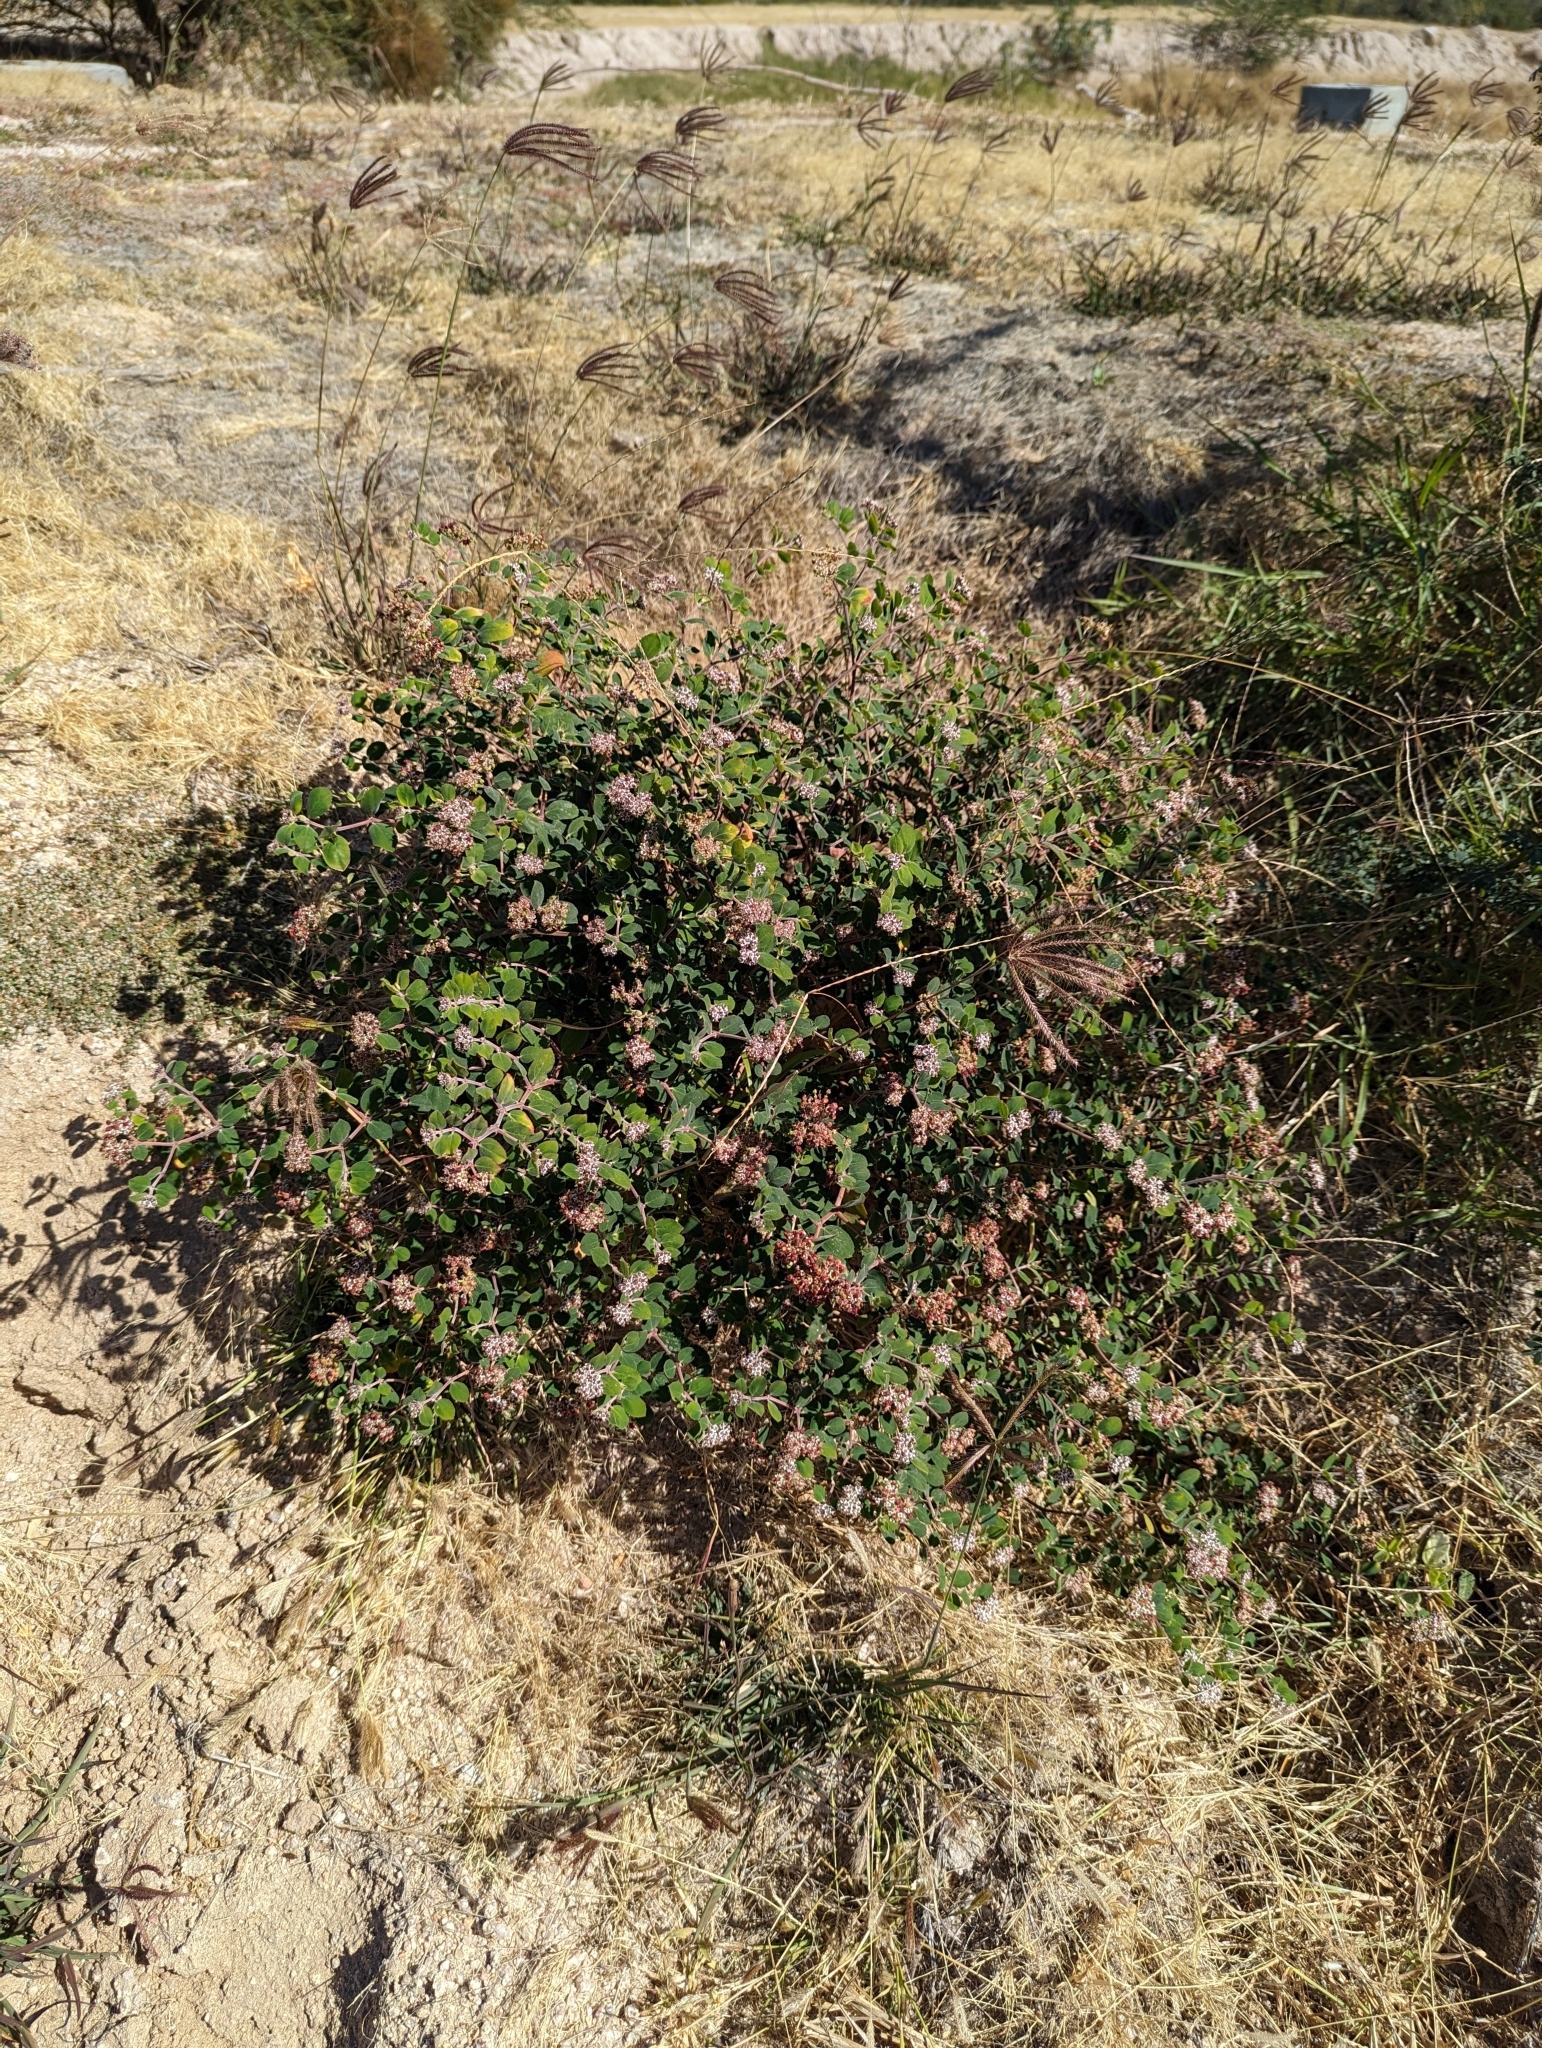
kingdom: Plantae
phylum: Tracheophyta
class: Magnoliopsida
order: Malpighiales
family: Euphorbiaceae
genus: Euphorbia
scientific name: Euphorbia tomentulosa
